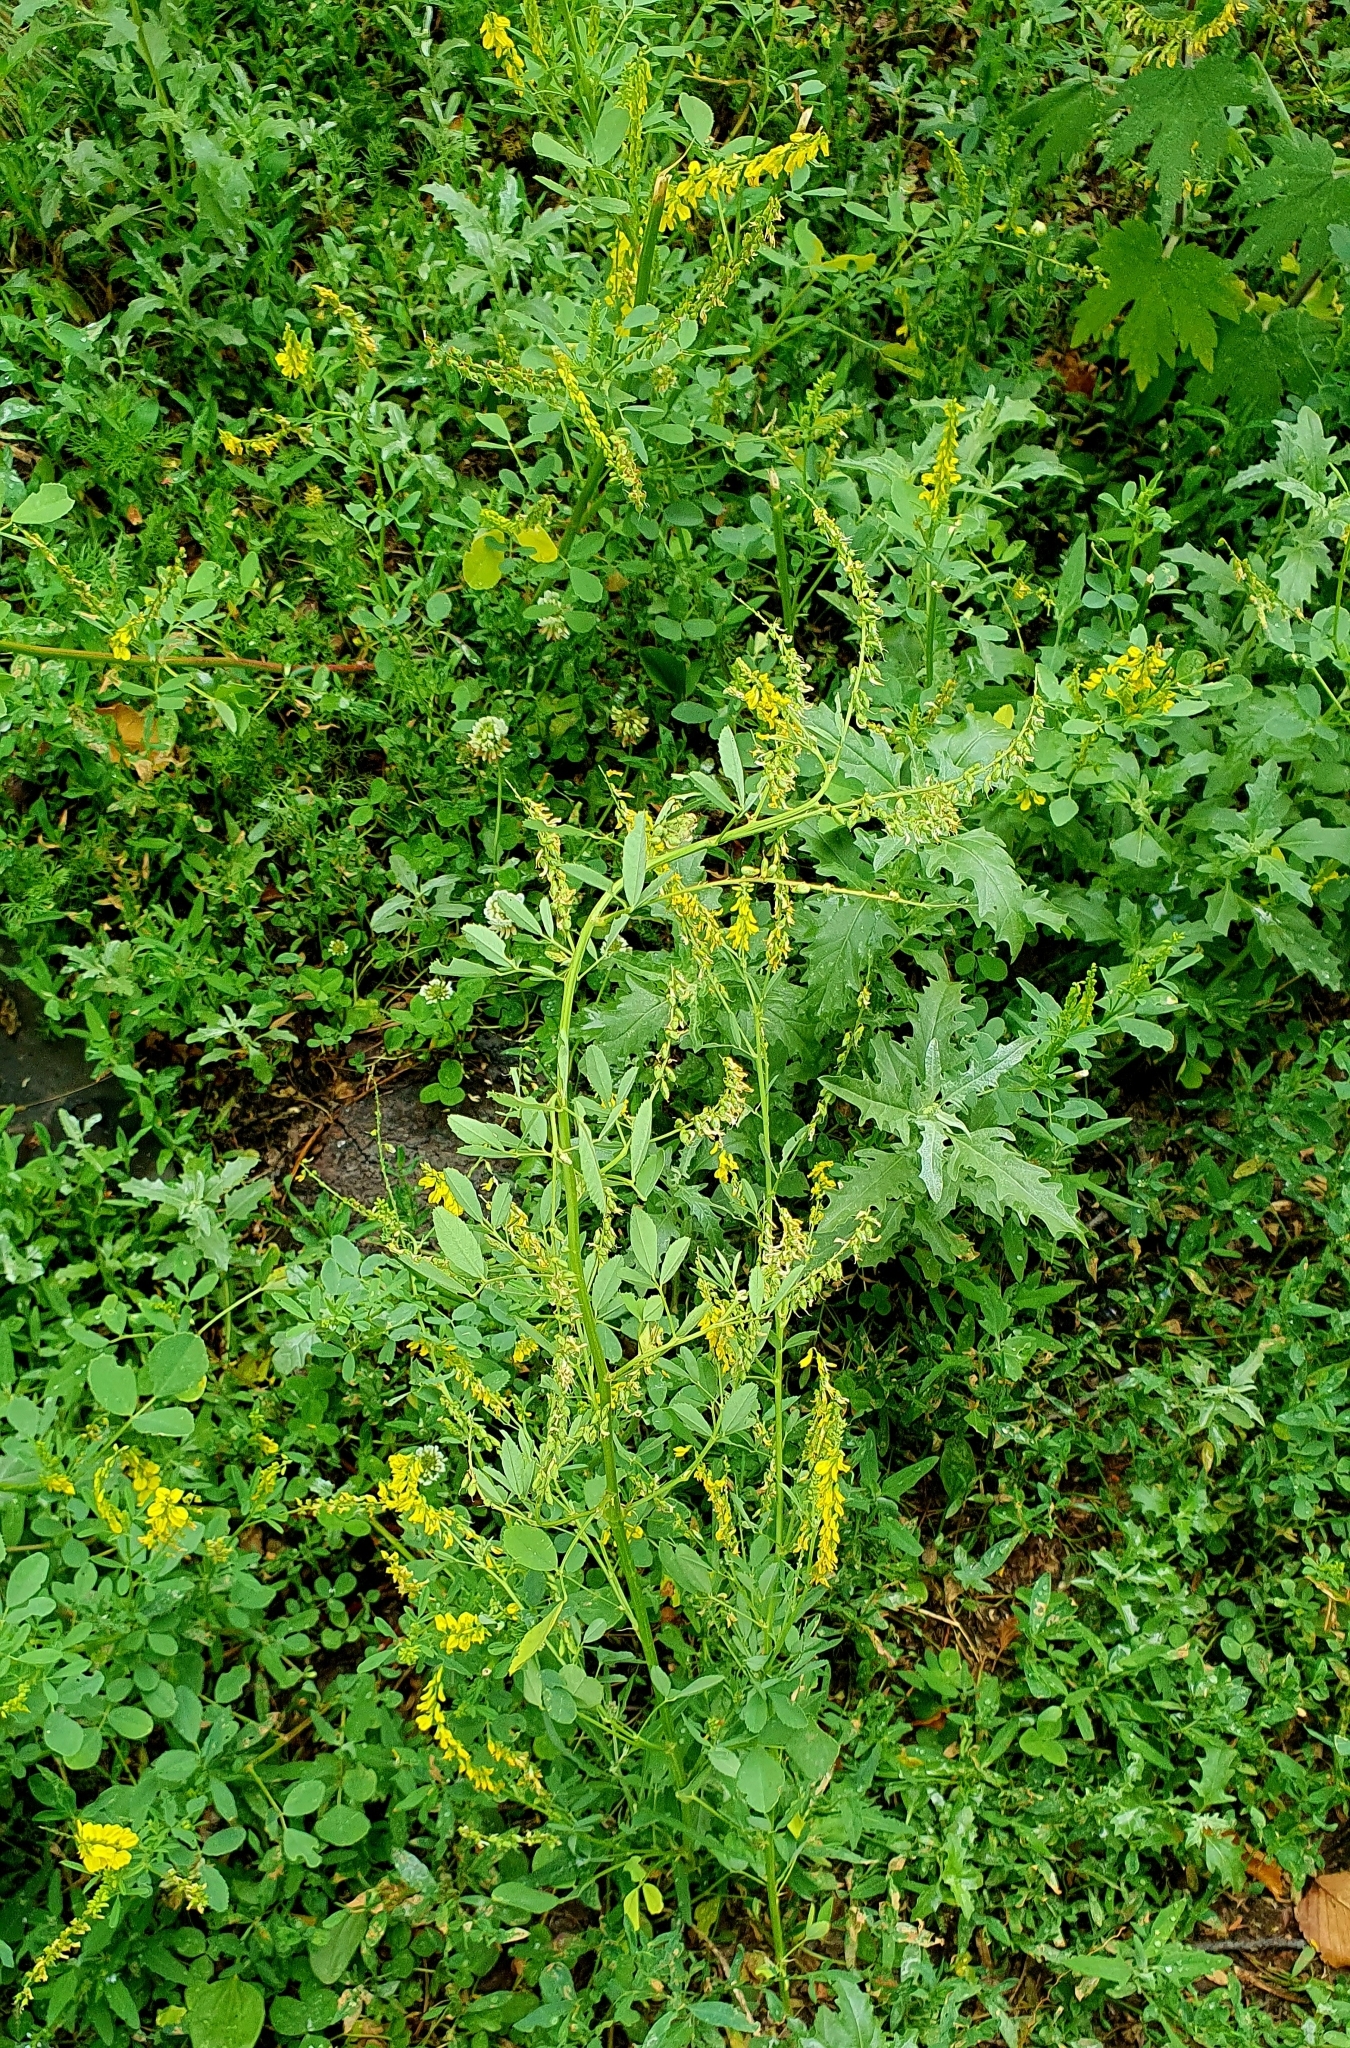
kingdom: Plantae
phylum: Tracheophyta
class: Magnoliopsida
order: Fabales
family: Fabaceae
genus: Melilotus
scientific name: Melilotus officinalis
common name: Sweetclover
